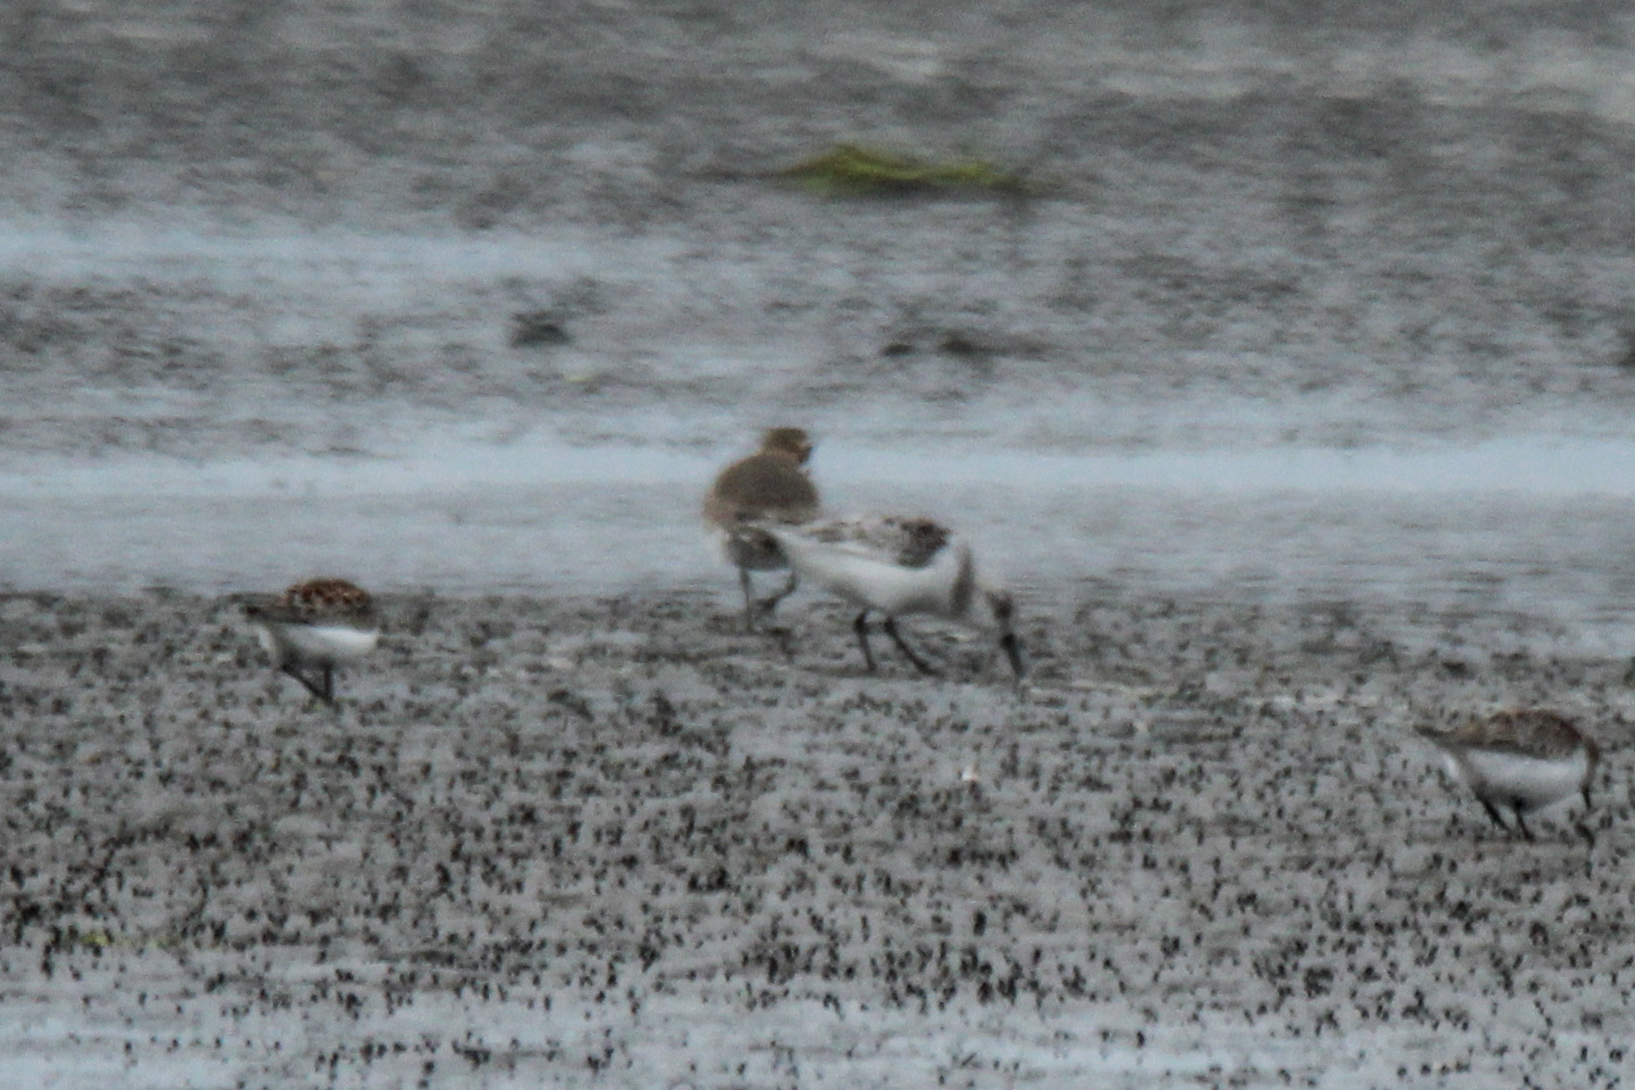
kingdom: Animalia
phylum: Chordata
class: Aves
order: Charadriiformes
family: Scolopacidae
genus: Calidris
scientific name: Calidris alba
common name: Sanderling
